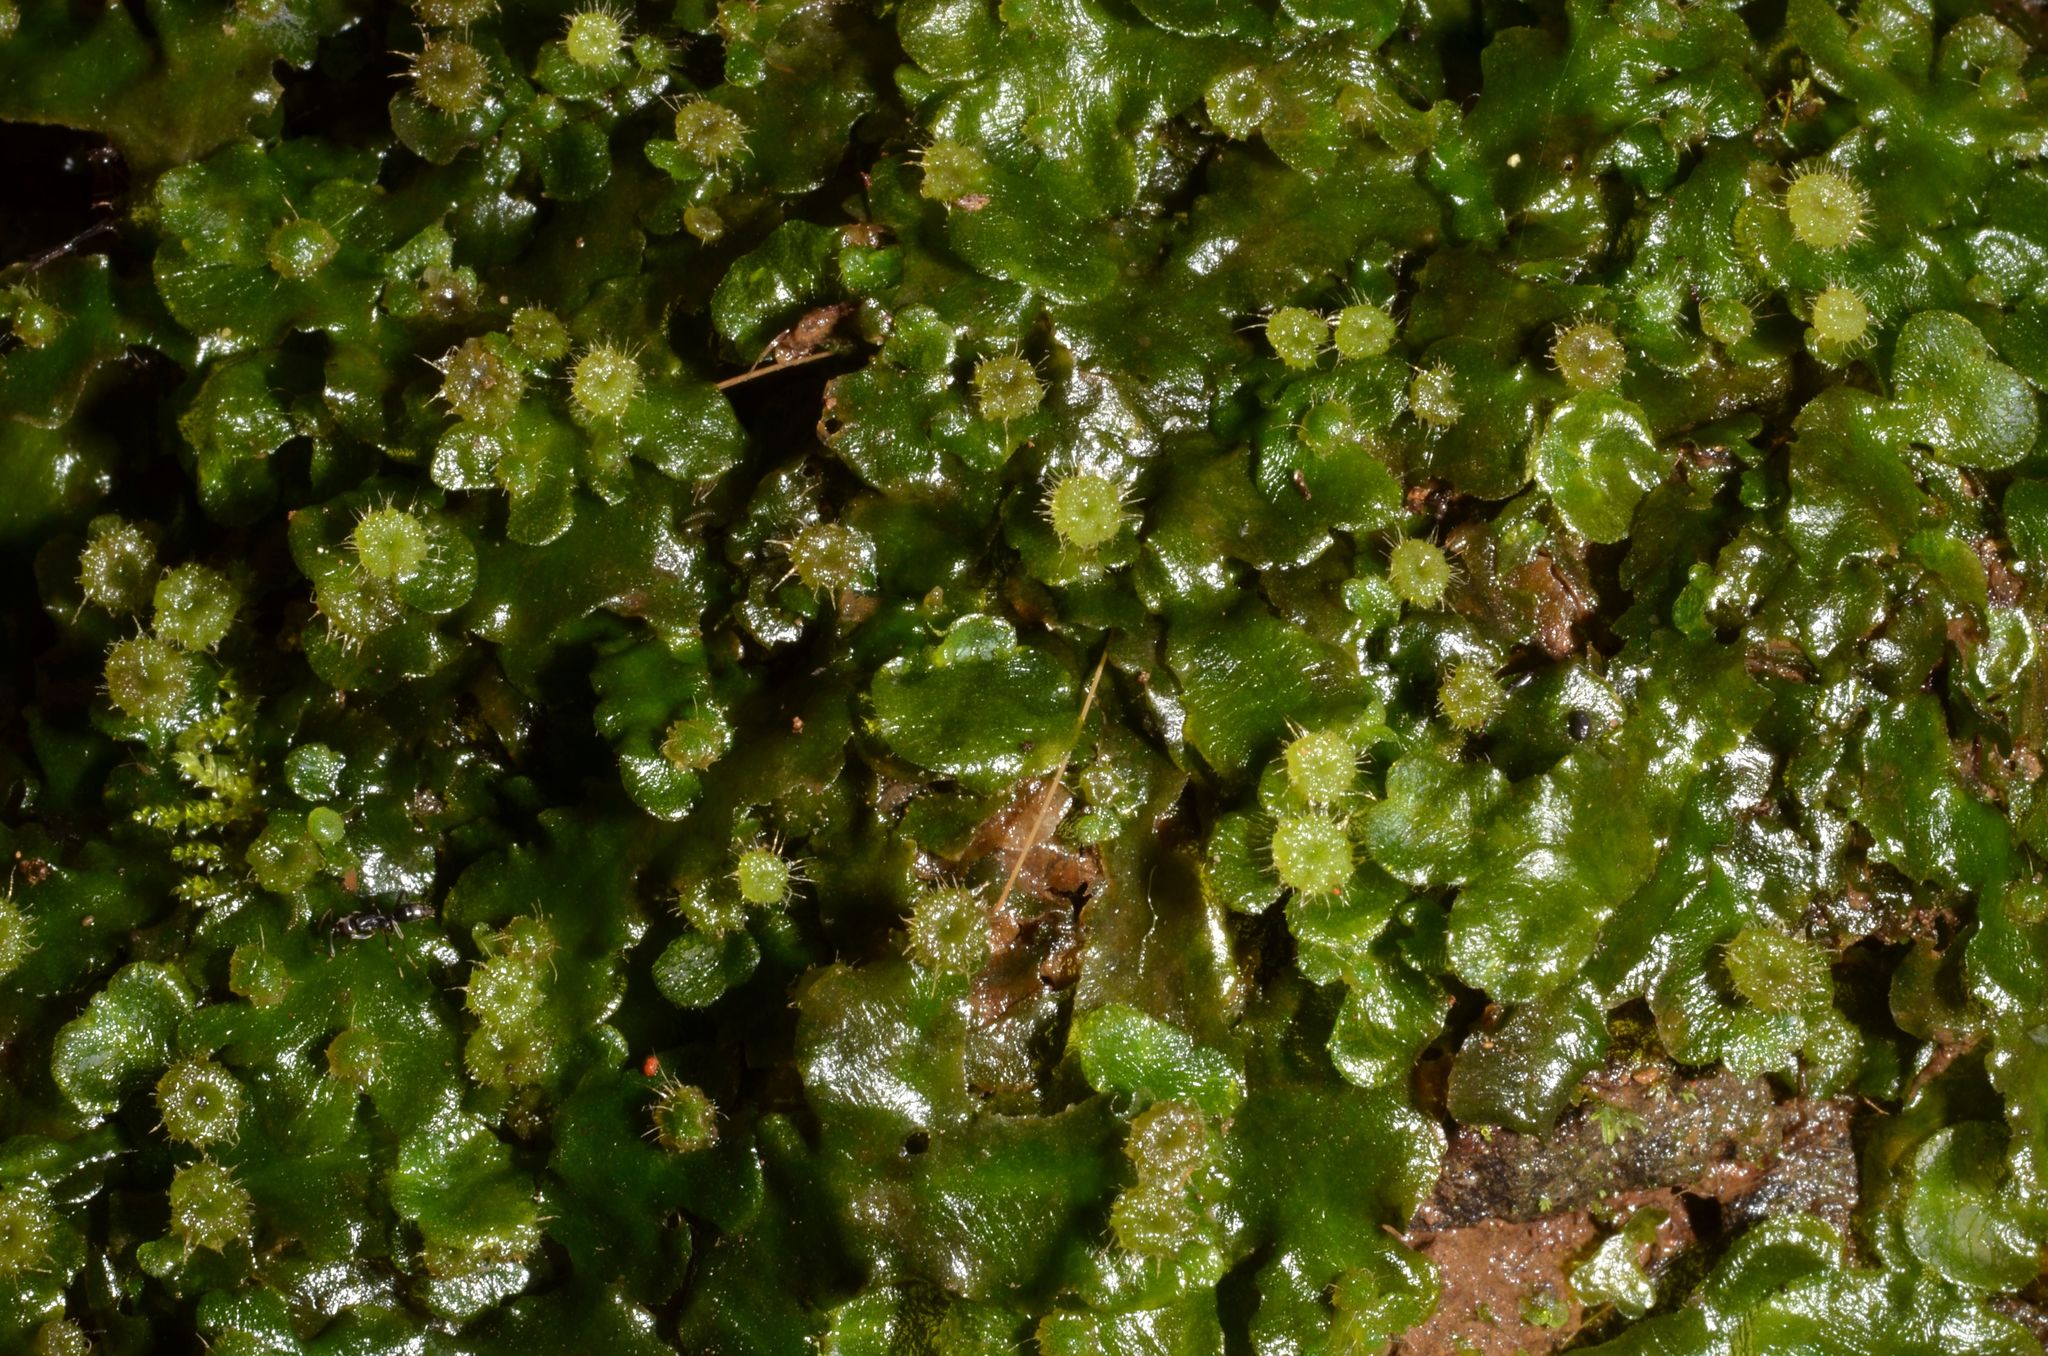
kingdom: Plantae
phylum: Marchantiophyta
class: Marchantiopsida
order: Marchantiales
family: Dumortieraceae
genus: Dumortiera
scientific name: Dumortiera hirsuta
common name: Dumortier's liverwort
